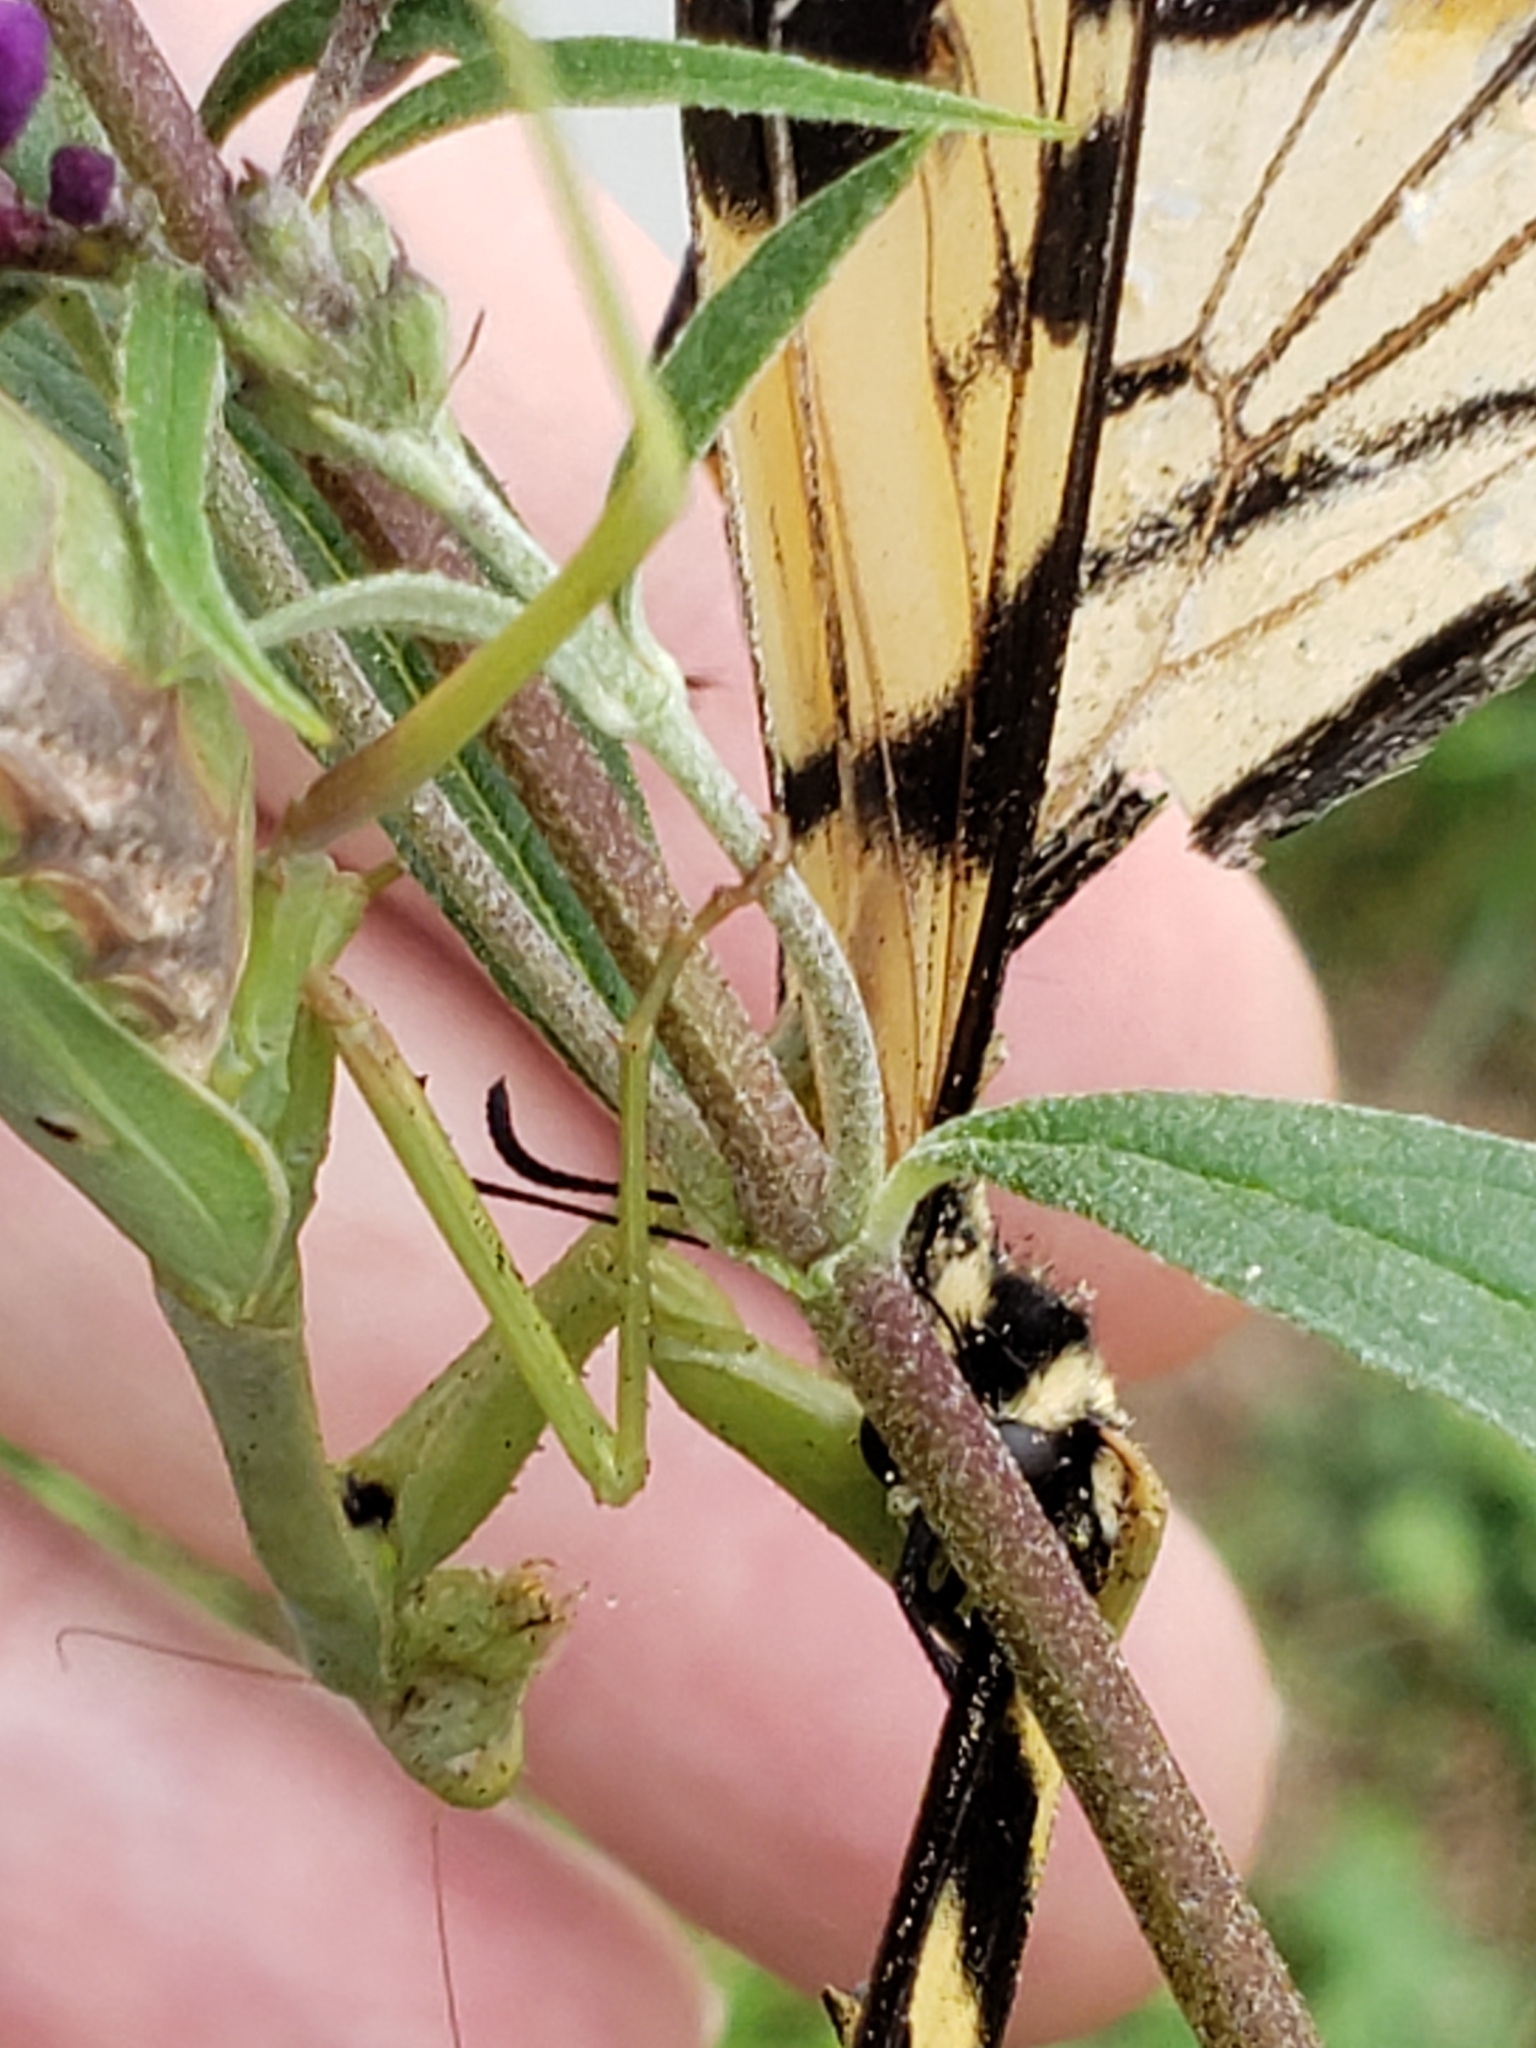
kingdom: Animalia
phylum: Arthropoda
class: Insecta
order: Mantodea
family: Mantidae
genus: Stagmomantis
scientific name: Stagmomantis carolina
